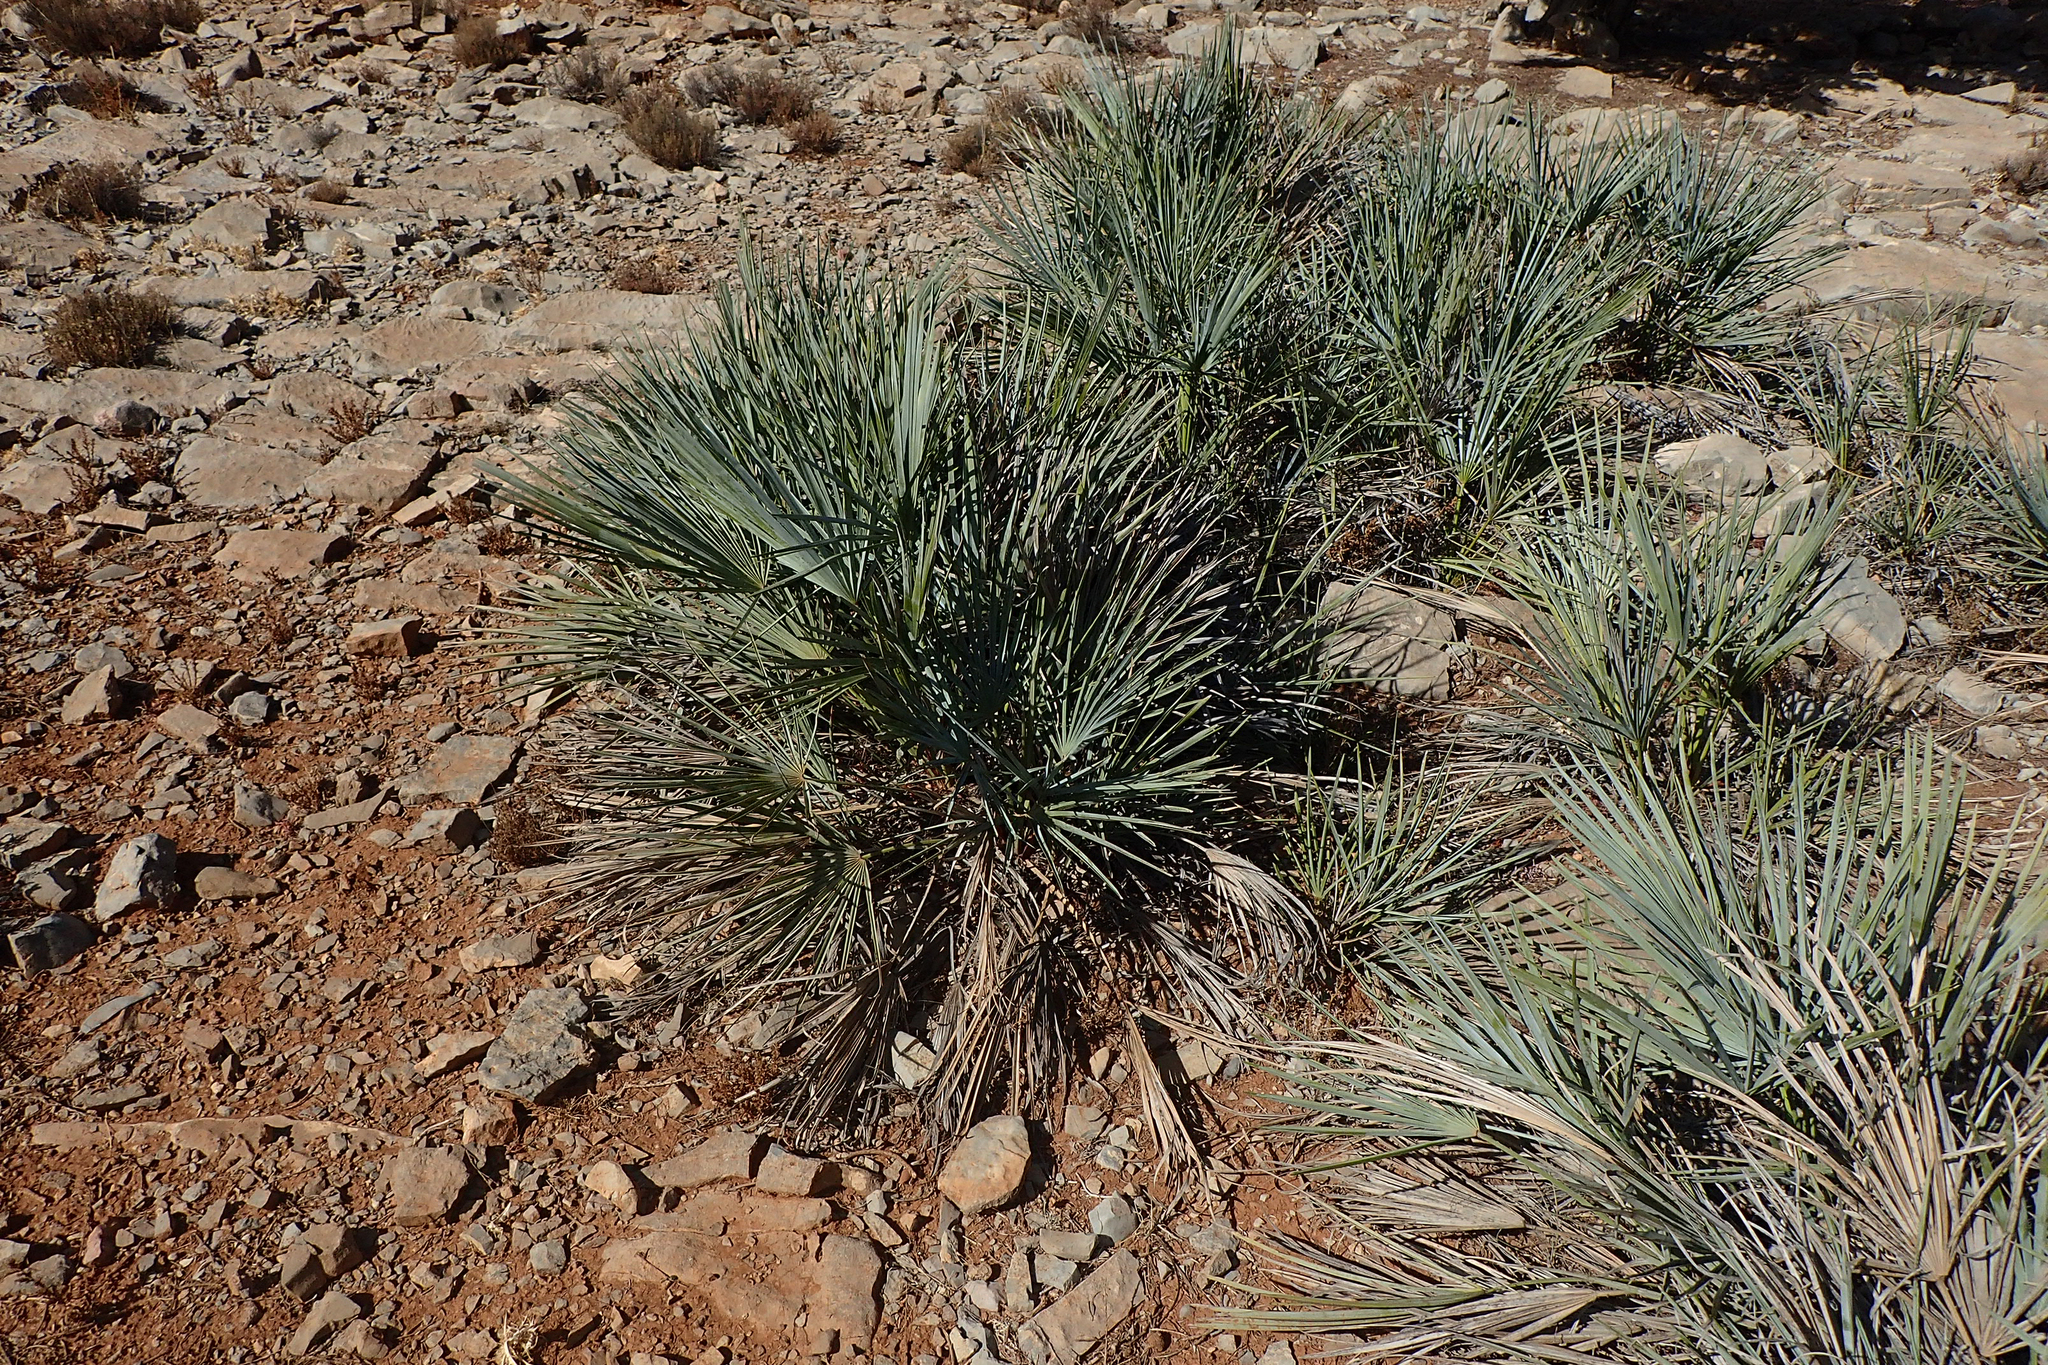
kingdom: Plantae
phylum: Tracheophyta
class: Liliopsida
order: Arecales
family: Arecaceae
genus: Chamaerops
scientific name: Chamaerops humilis
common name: Dwarf fan palm
